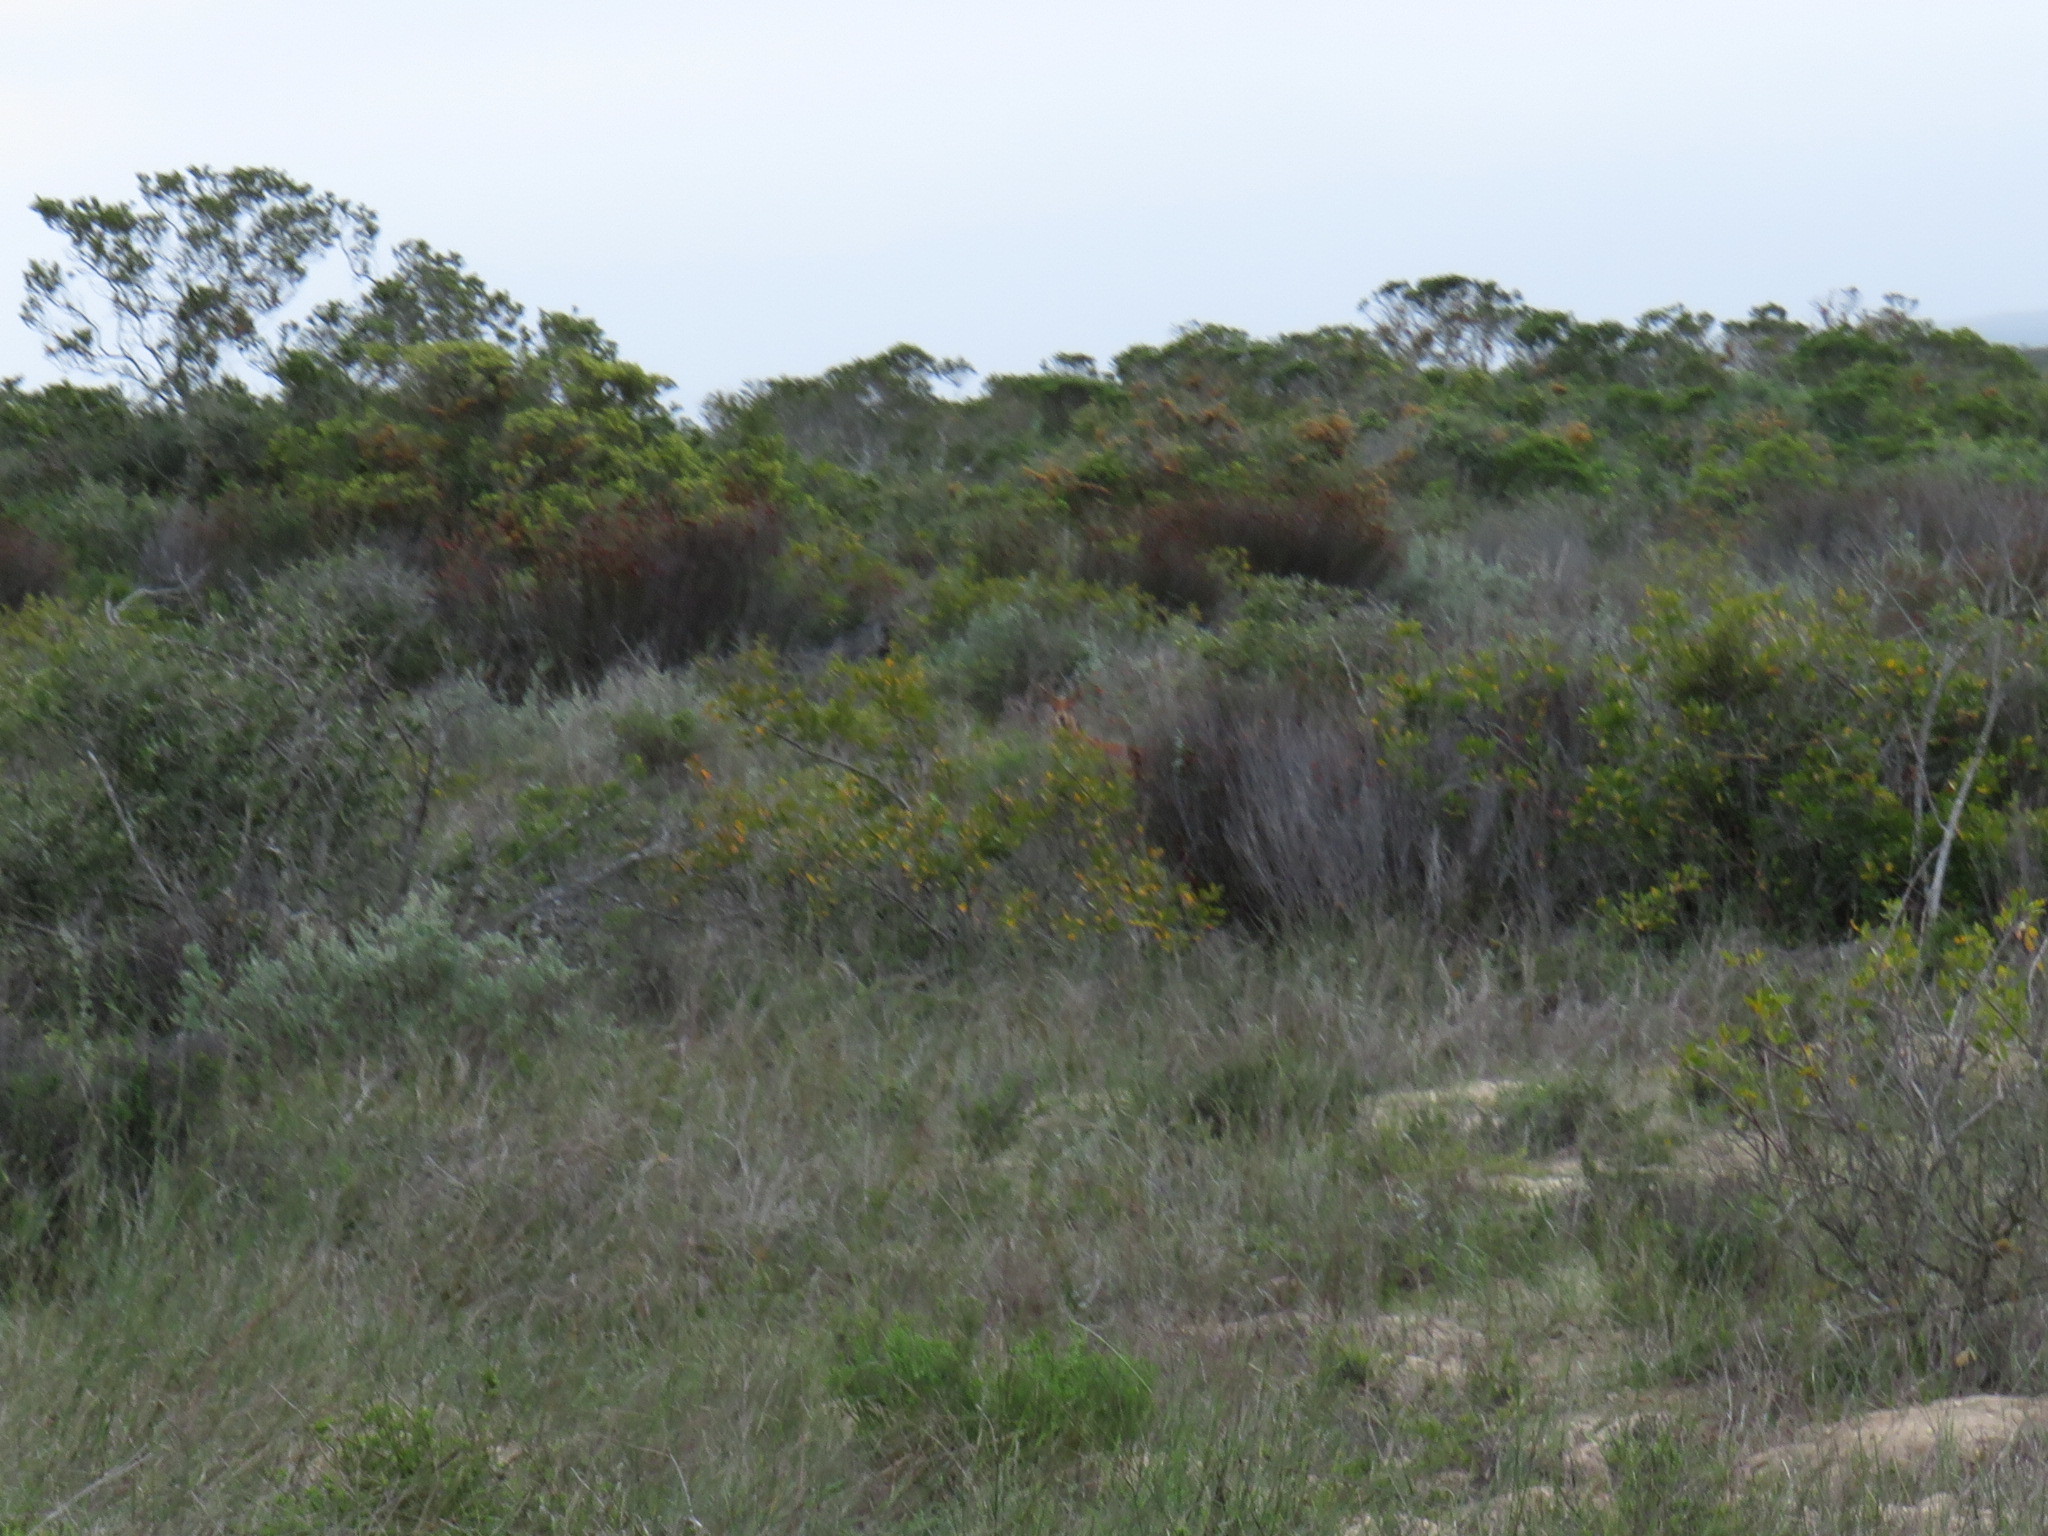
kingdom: Animalia
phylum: Chordata
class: Mammalia
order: Artiodactyla
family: Bovidae
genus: Raphicerus
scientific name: Raphicerus campestris
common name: Steenbok
